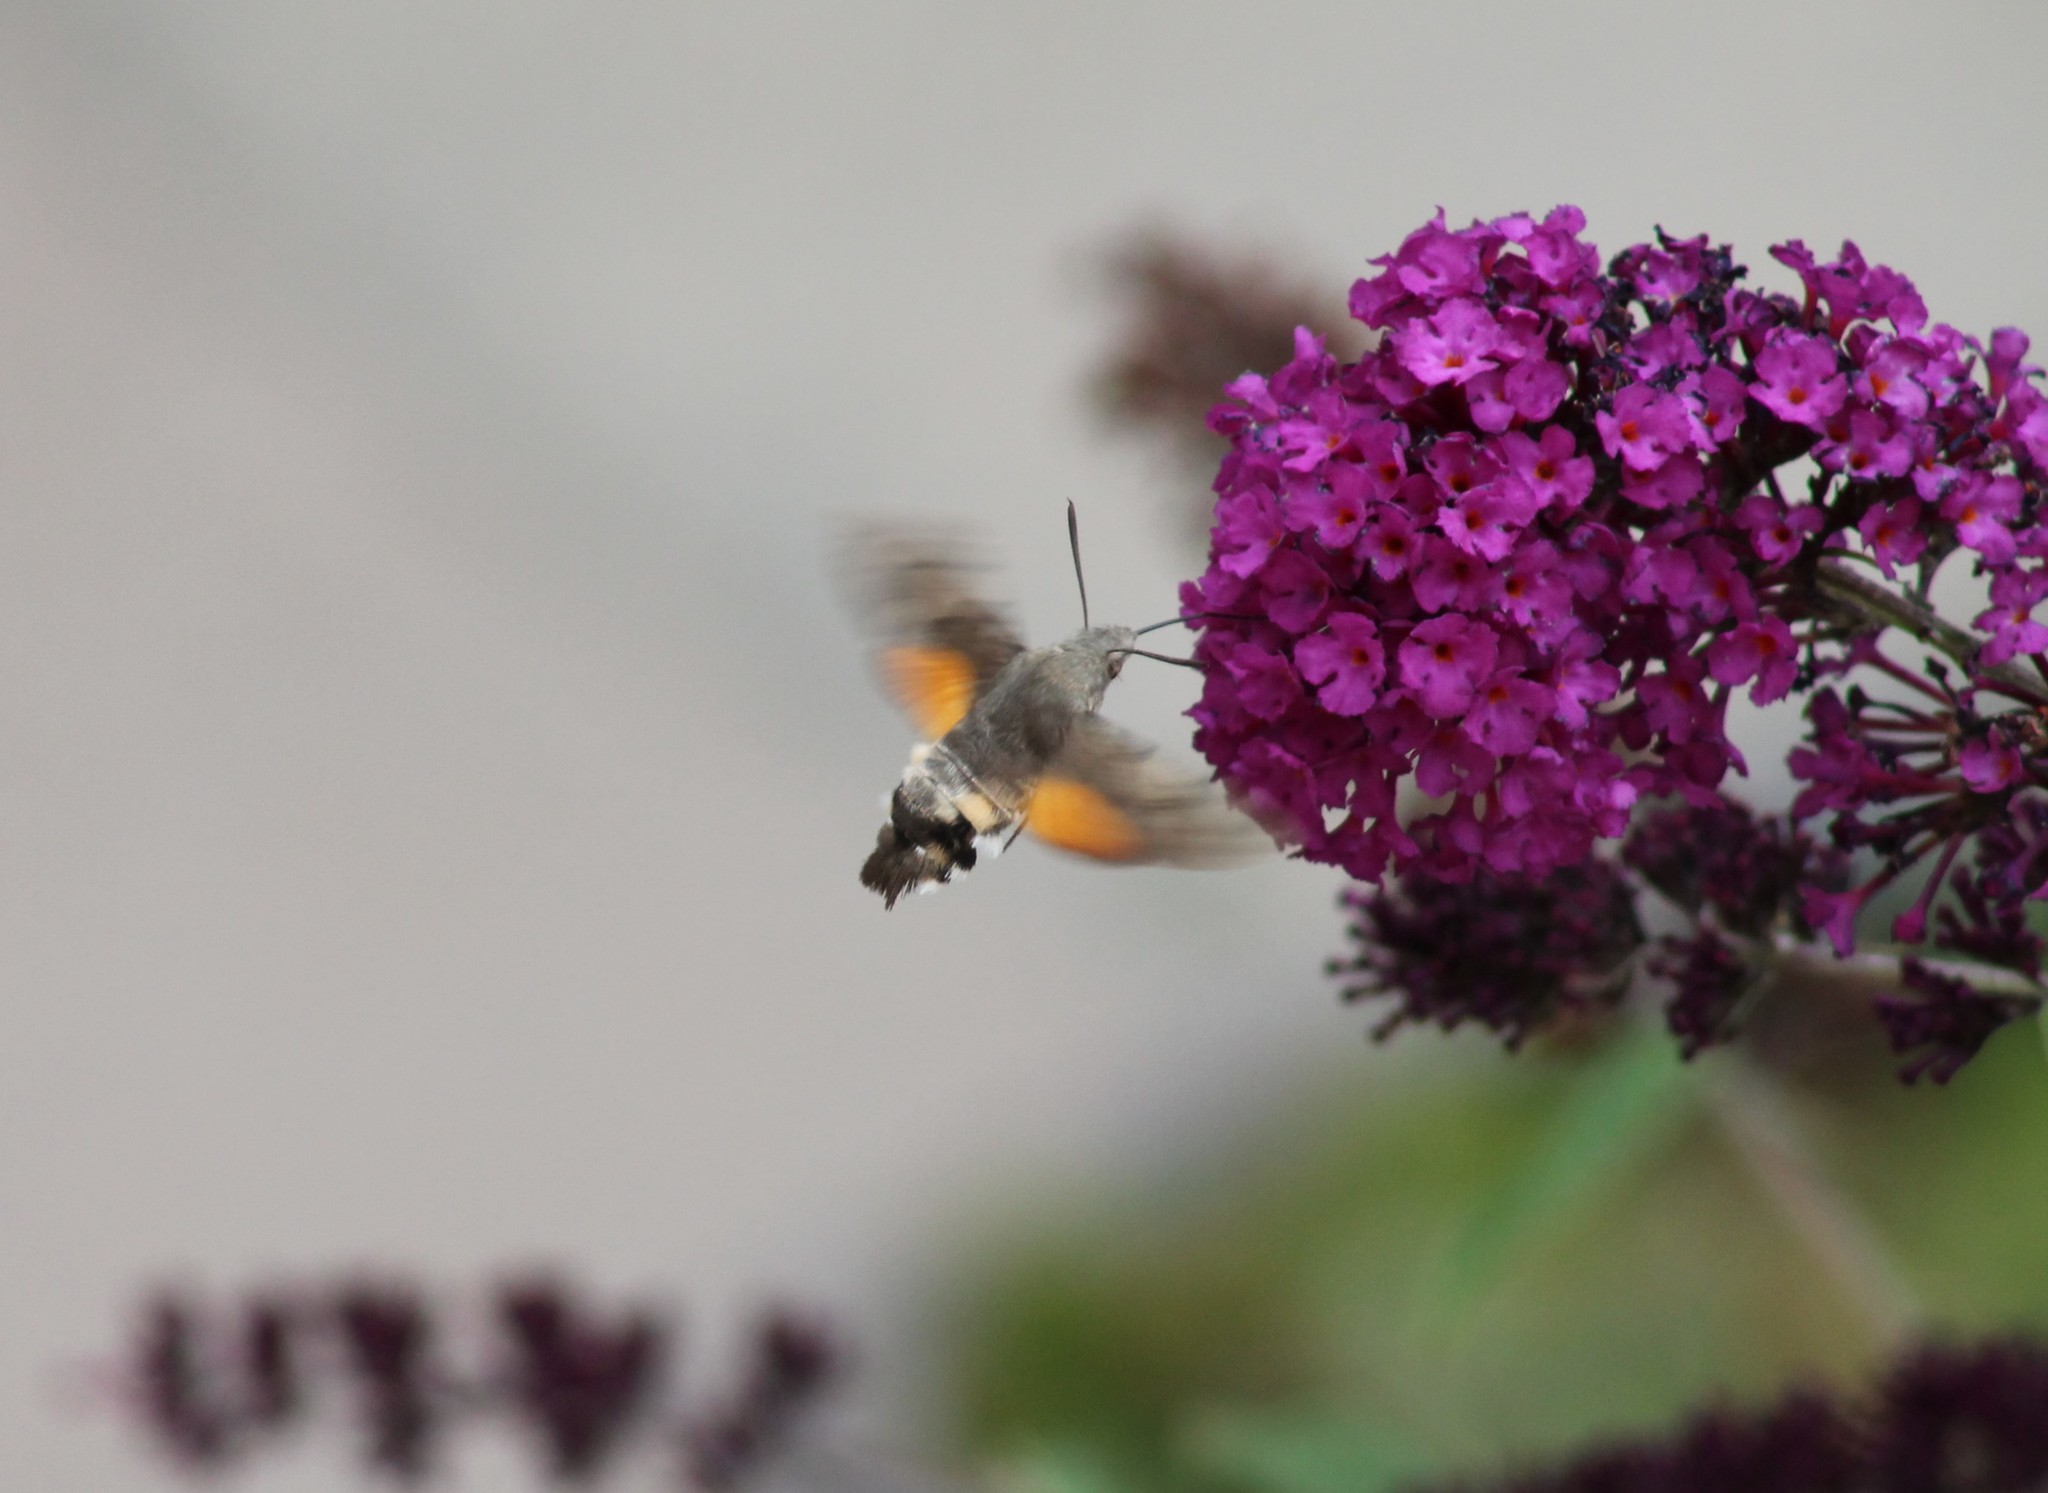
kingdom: Animalia
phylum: Arthropoda
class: Insecta
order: Lepidoptera
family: Sphingidae
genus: Macroglossum
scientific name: Macroglossum stellatarum
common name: Humming-bird hawk-moth
